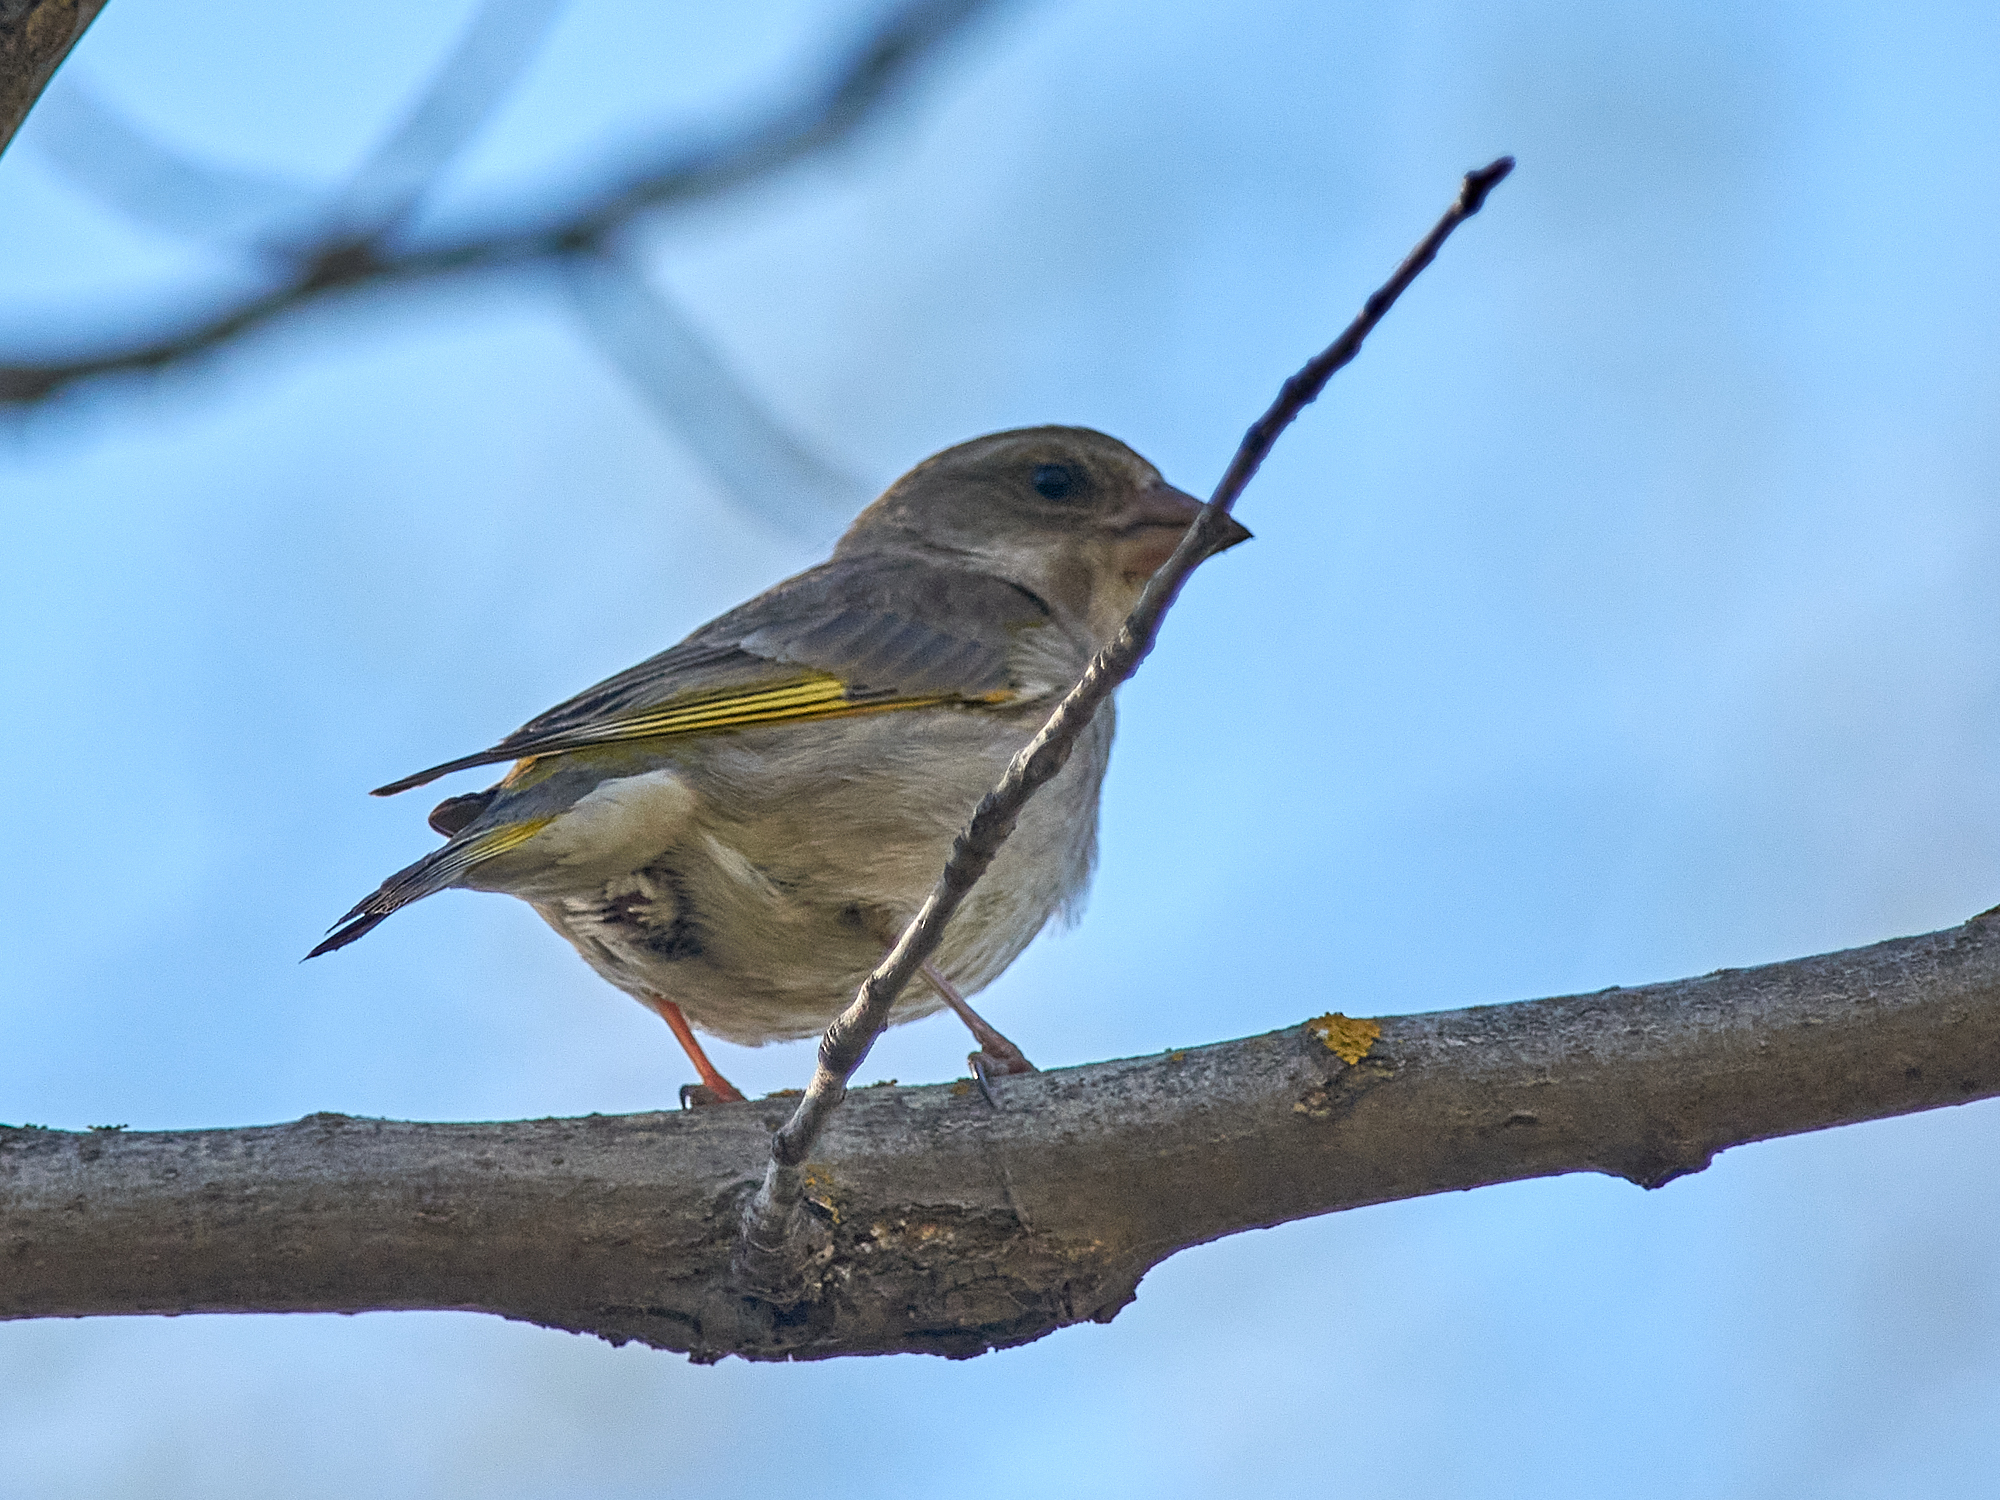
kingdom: Plantae
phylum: Tracheophyta
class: Liliopsida
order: Poales
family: Poaceae
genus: Chloris
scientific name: Chloris chloris
